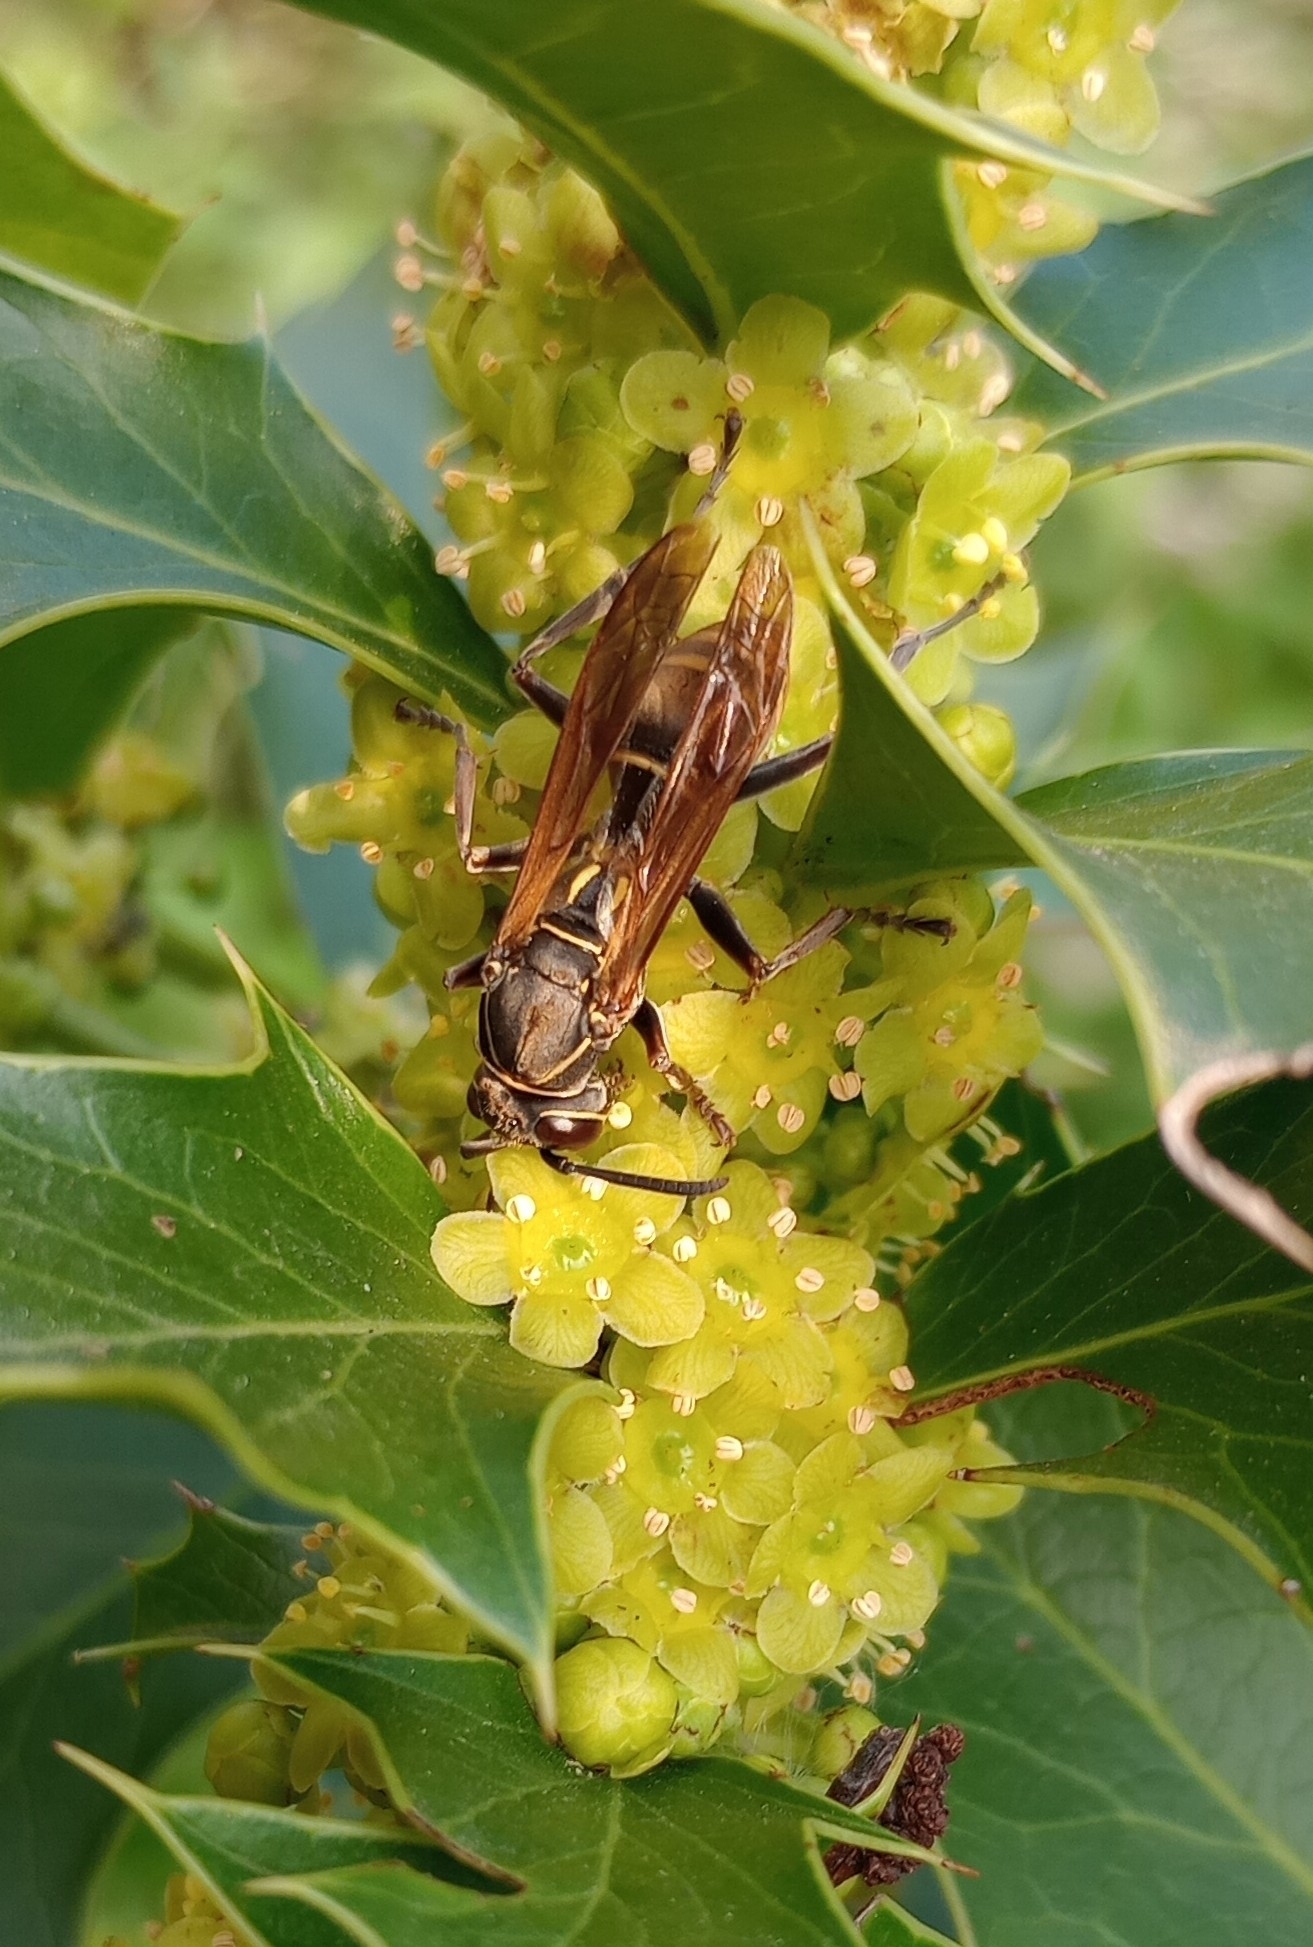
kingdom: Animalia
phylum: Arthropoda
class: Insecta
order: Hymenoptera
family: Eumenidae
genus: Polistes
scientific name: Polistes cinerascens
